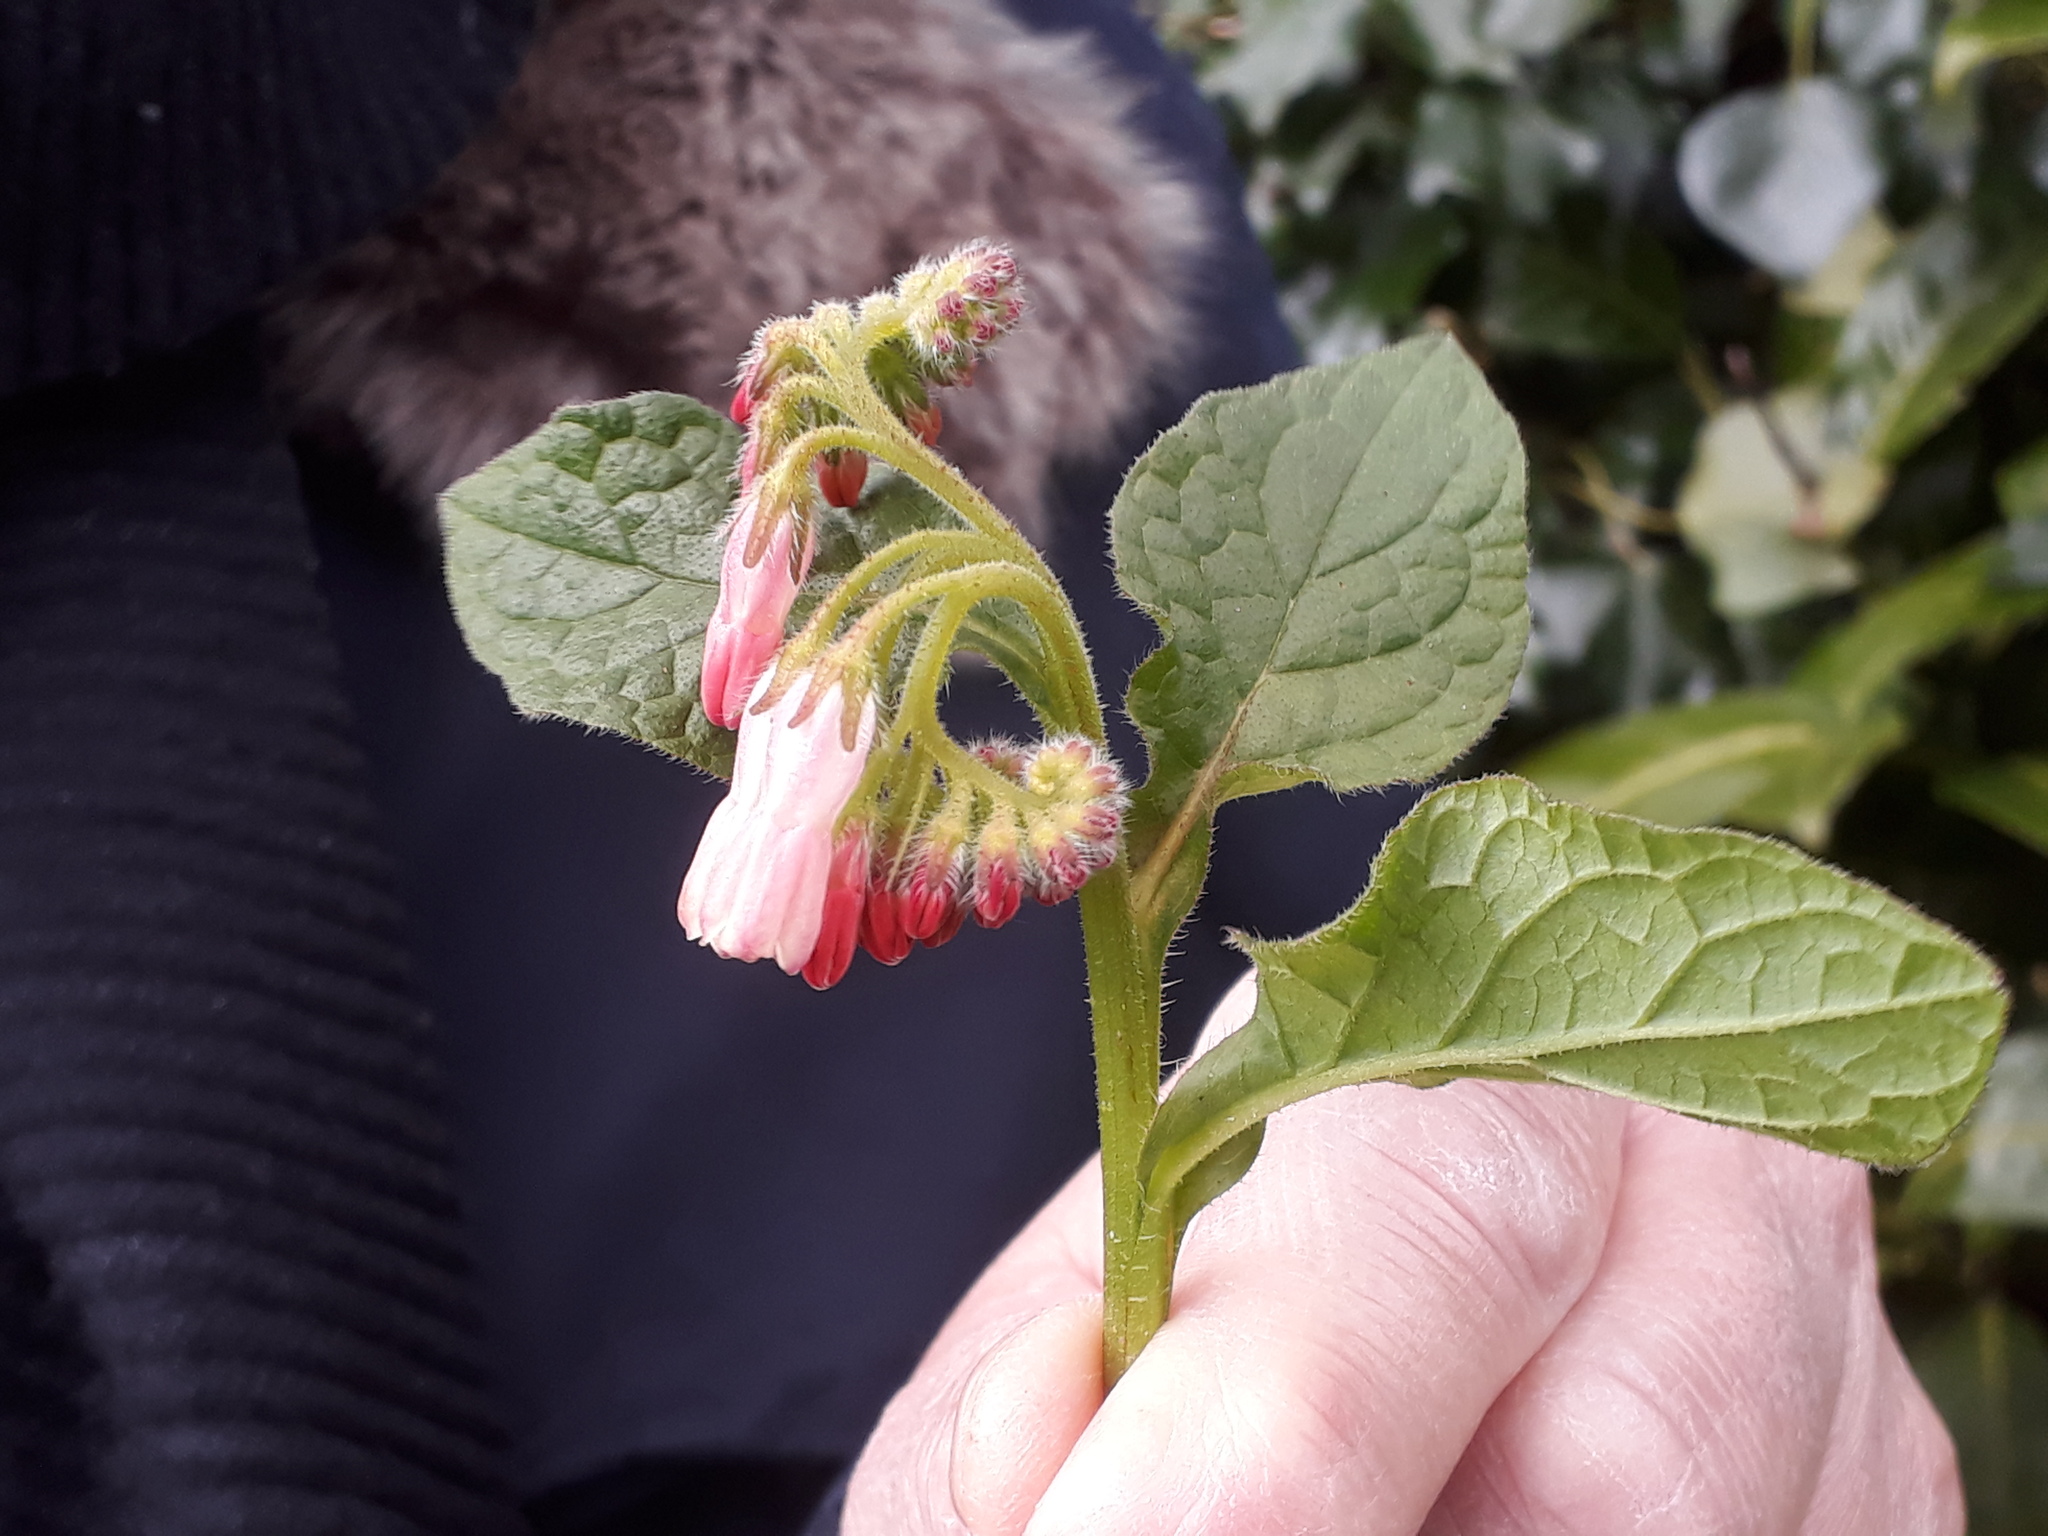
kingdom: Plantae
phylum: Tracheophyta
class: Magnoliopsida
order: Boraginales
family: Boraginaceae
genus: Symphytum
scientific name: Symphytum grandiflorum
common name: Creeping comfrey
